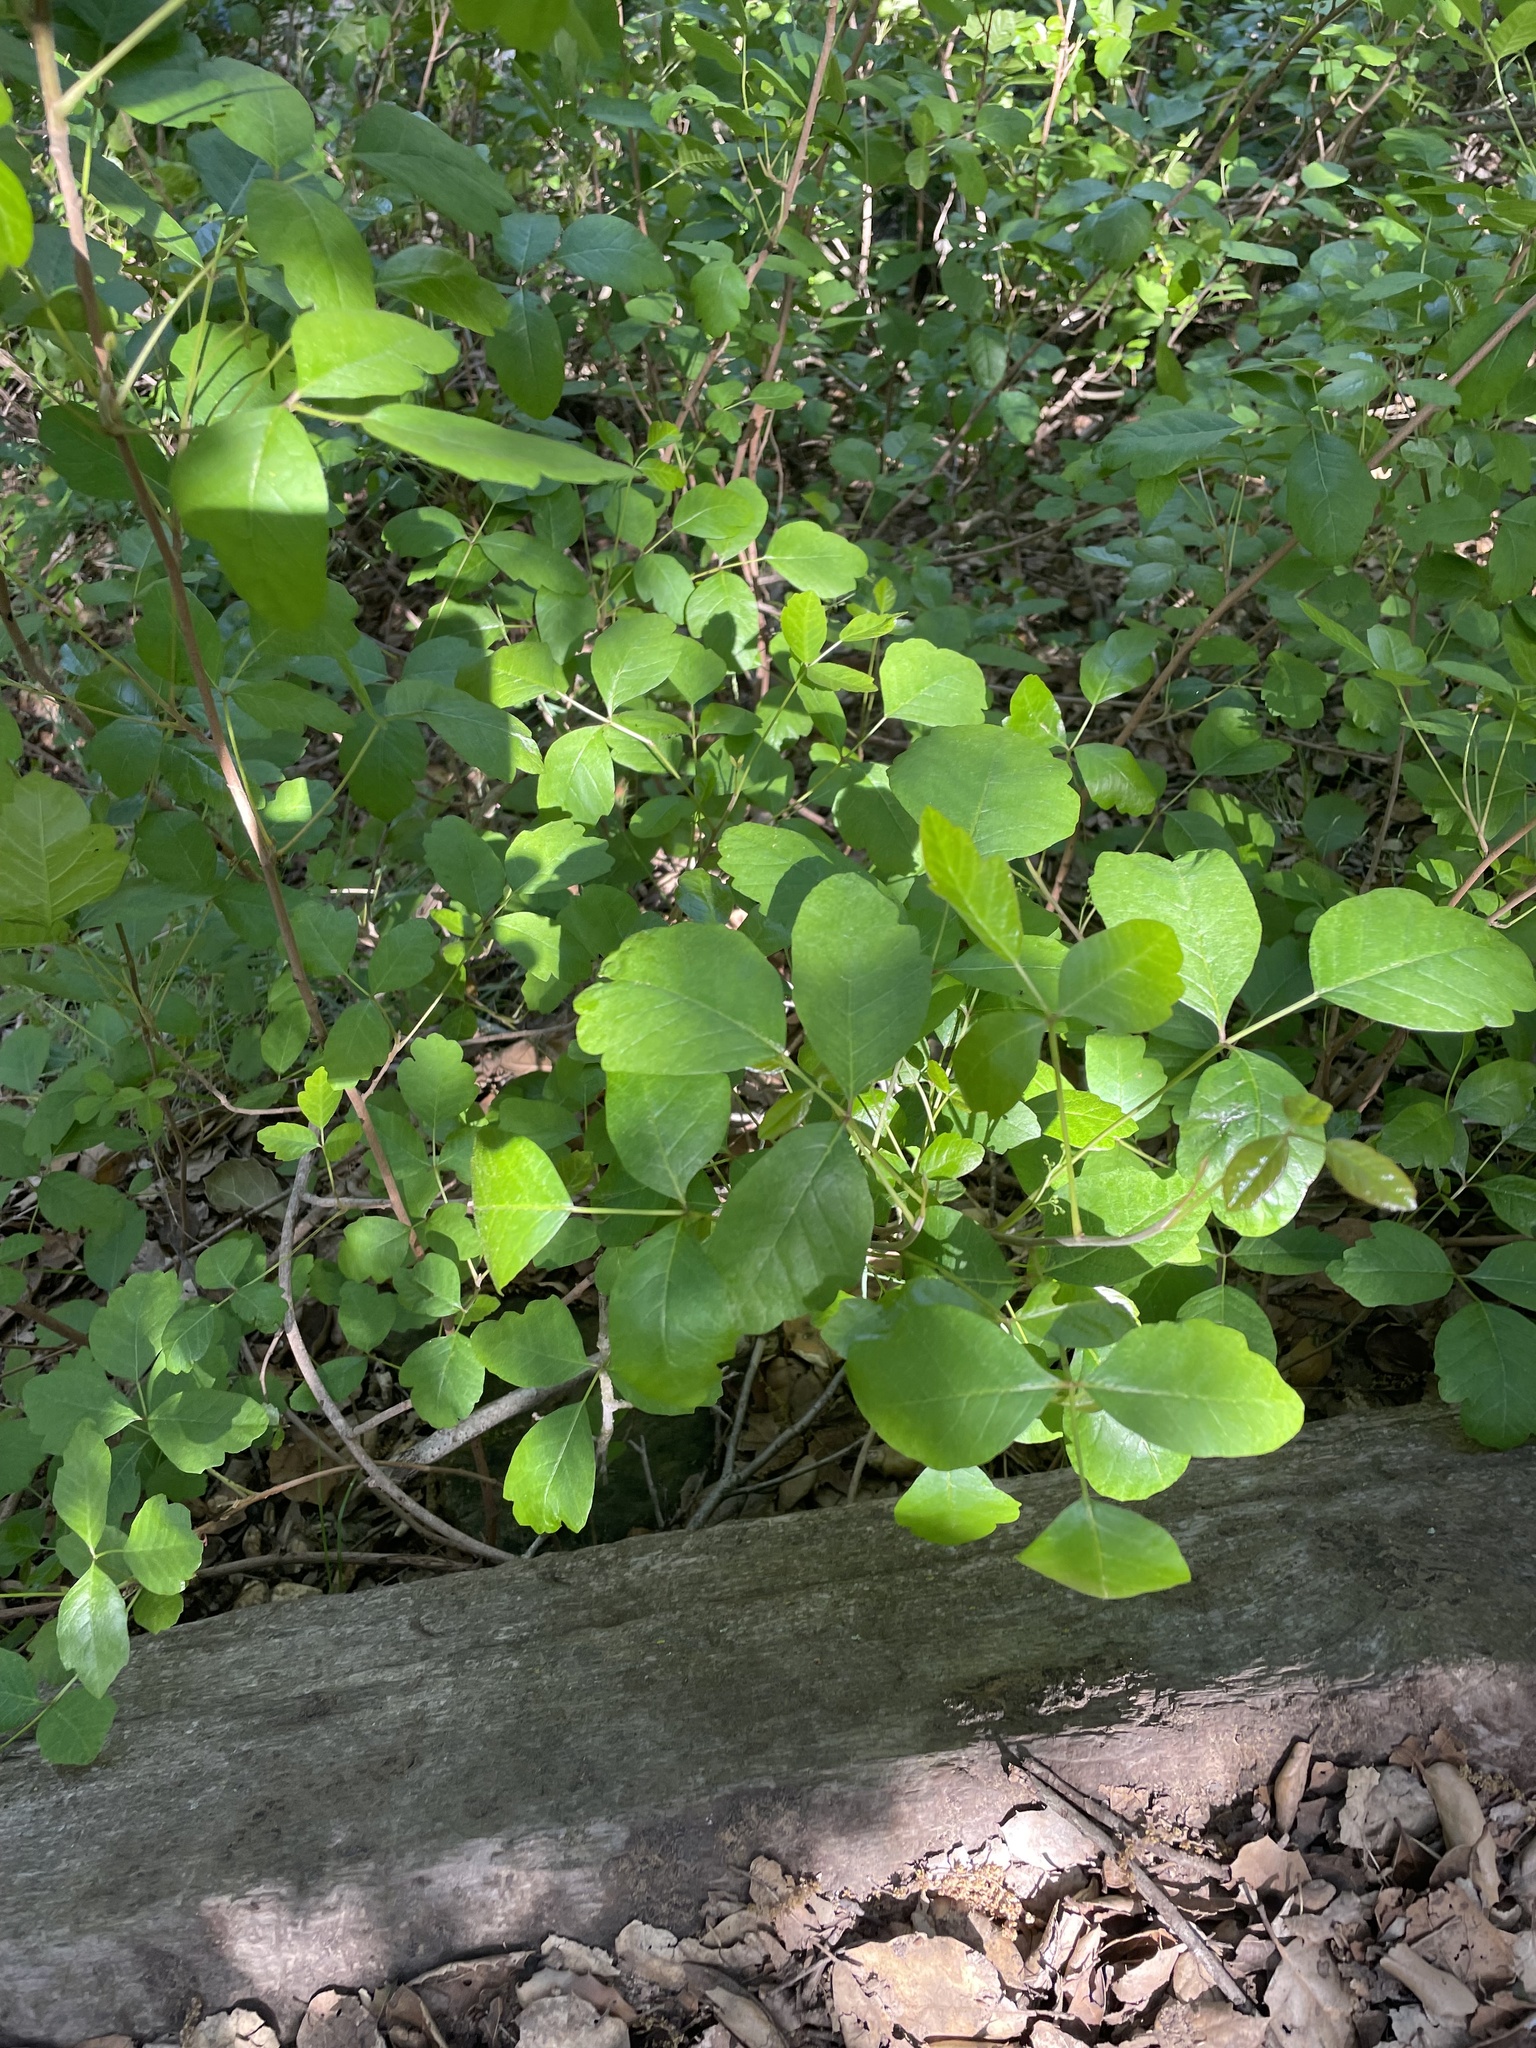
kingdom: Plantae
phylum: Tracheophyta
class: Magnoliopsida
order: Sapindales
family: Anacardiaceae
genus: Toxicodendron
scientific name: Toxicodendron diversilobum
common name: Pacific poison-oak
